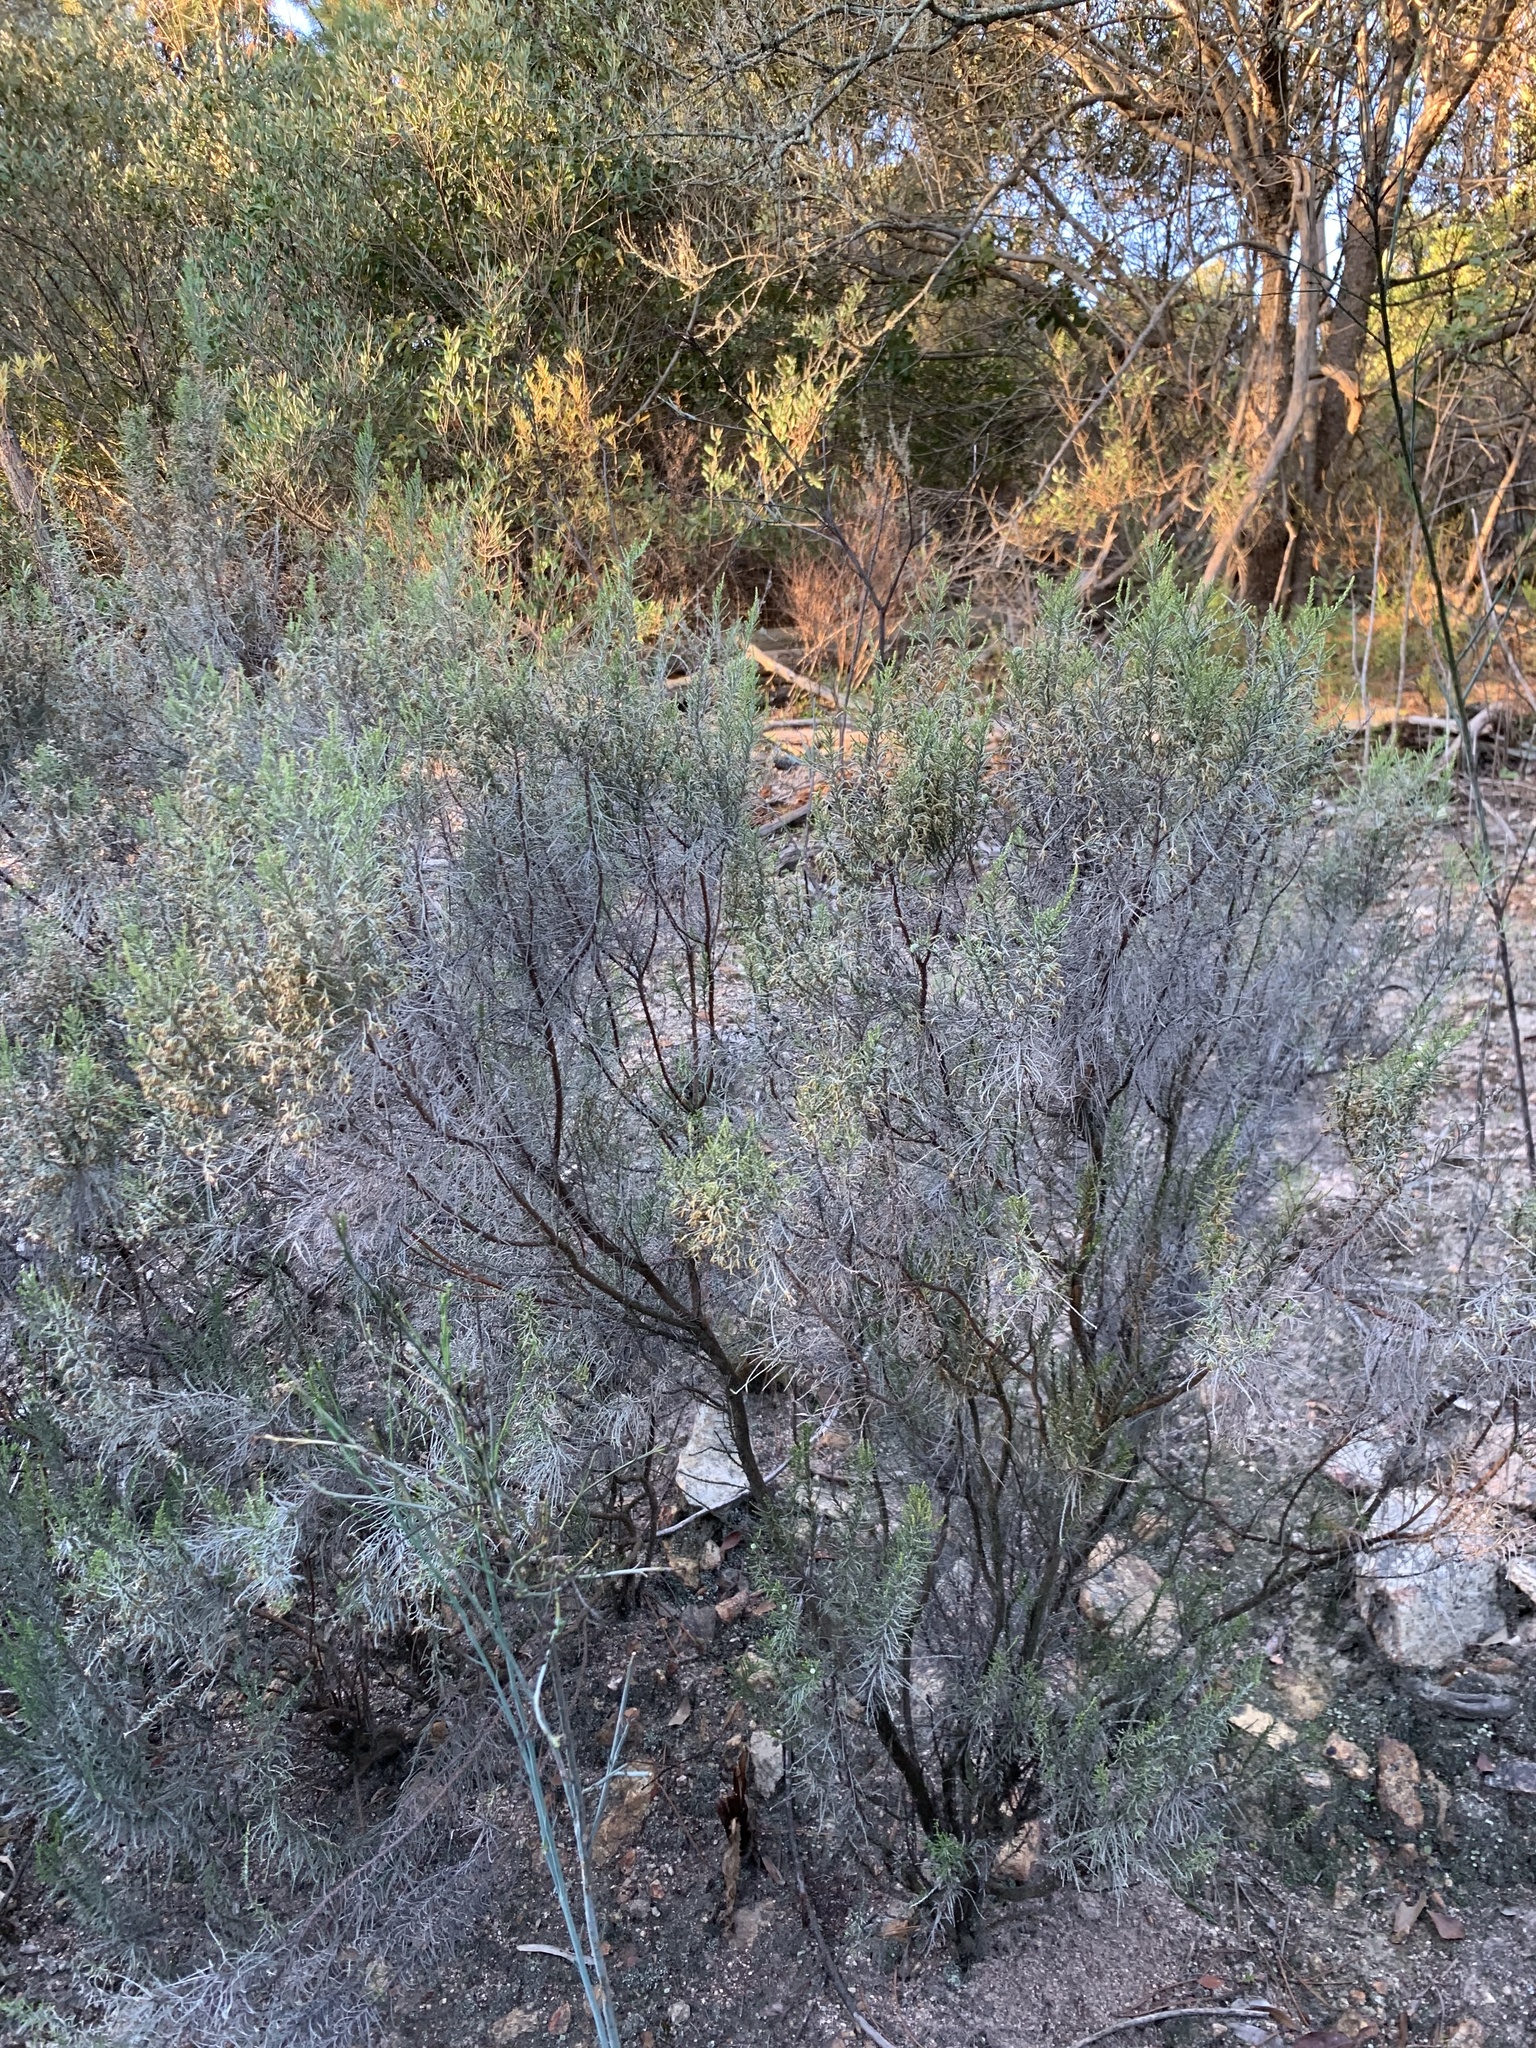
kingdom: Plantae
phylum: Tracheophyta
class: Magnoliopsida
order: Asterales
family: Asteraceae
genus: Dicerothamnus
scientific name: Dicerothamnus rhinocerotis
